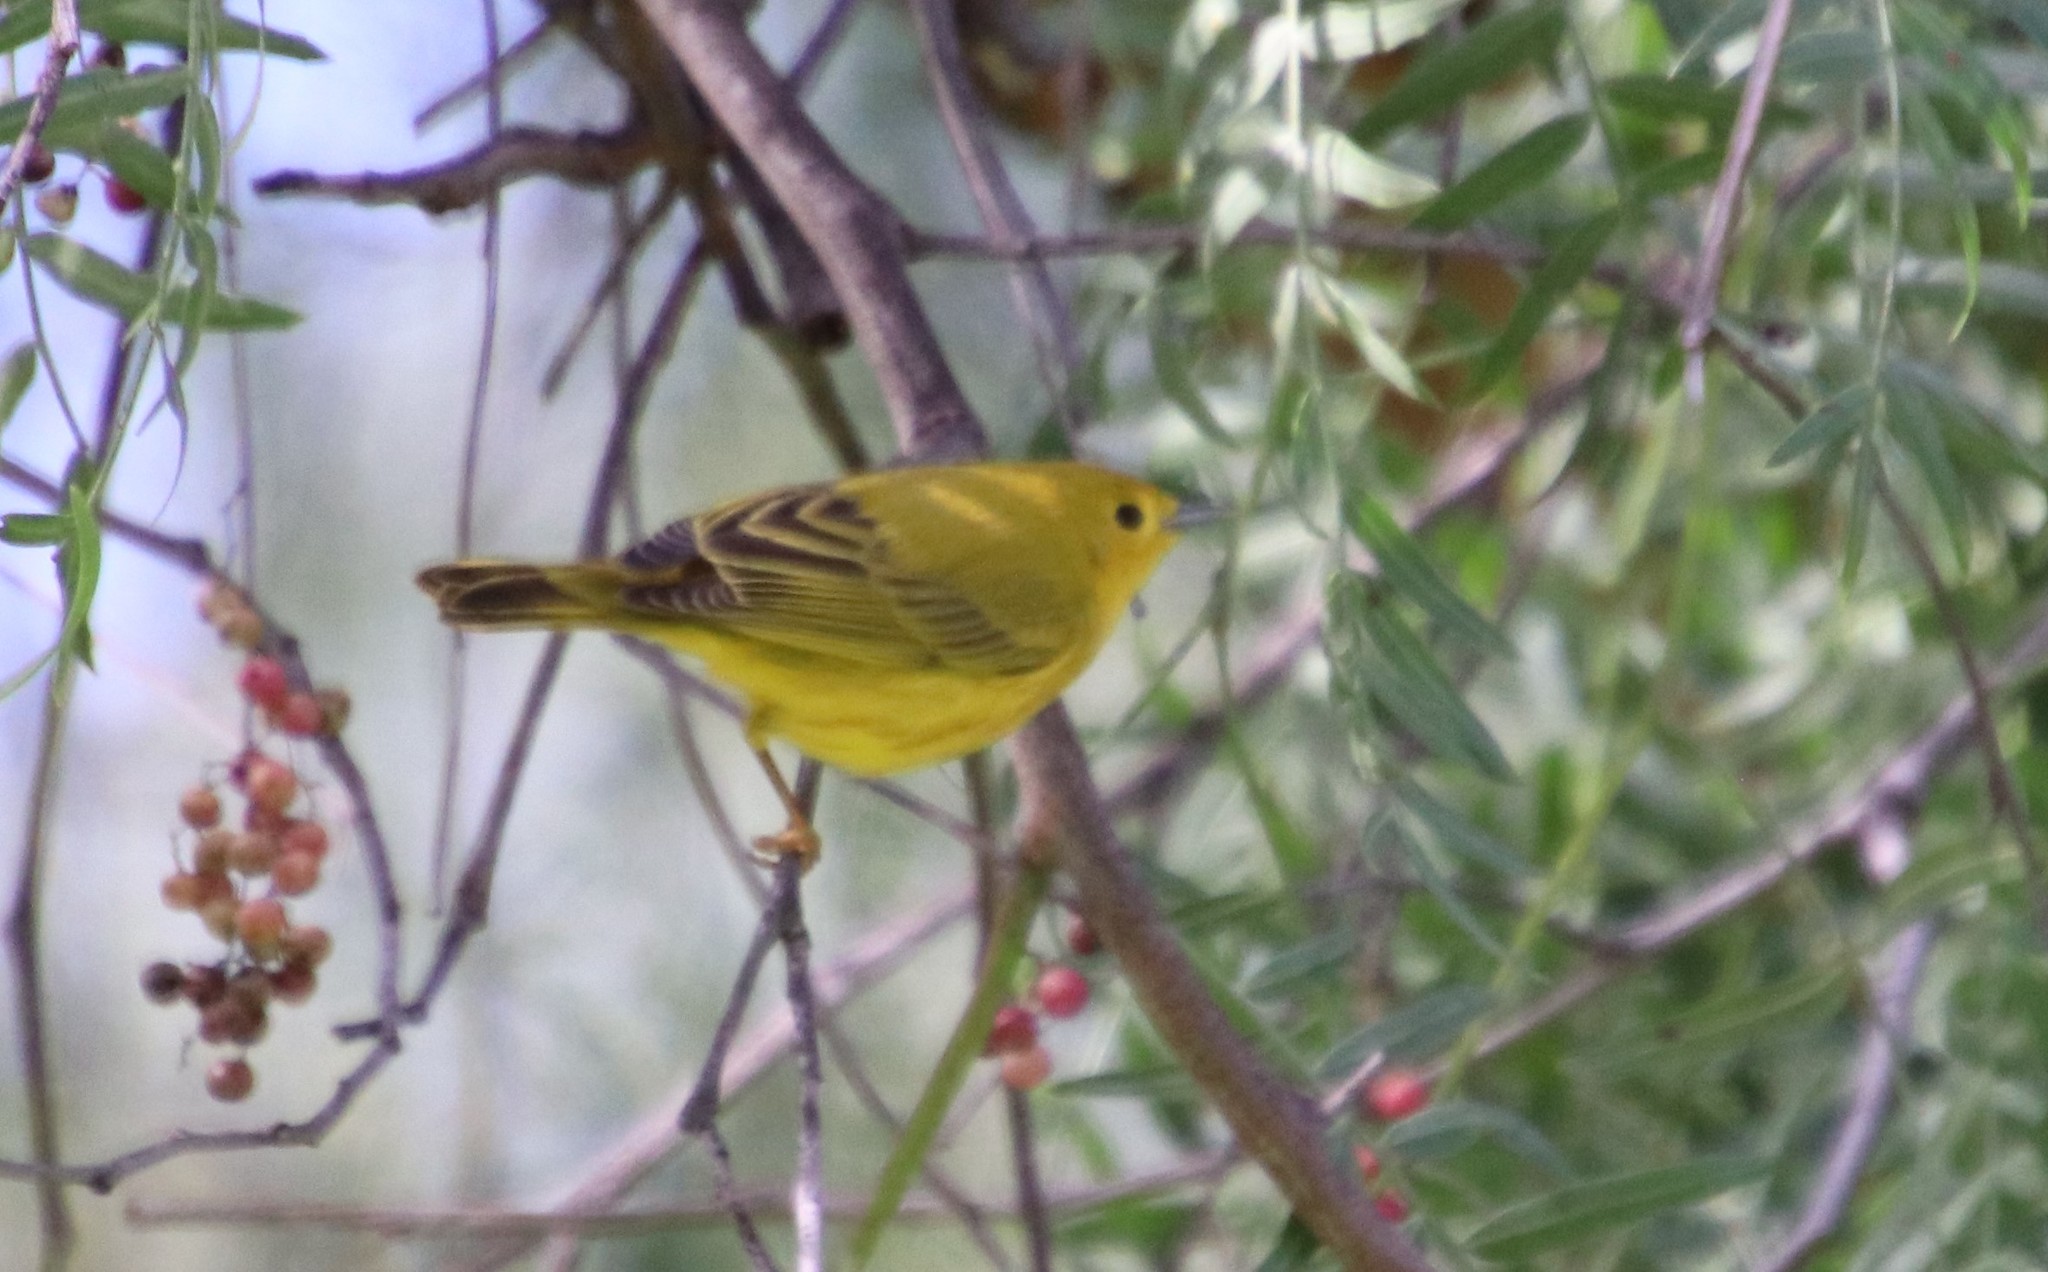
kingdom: Animalia
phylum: Chordata
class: Aves
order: Passeriformes
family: Parulidae
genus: Setophaga
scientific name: Setophaga petechia
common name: Yellow warbler
